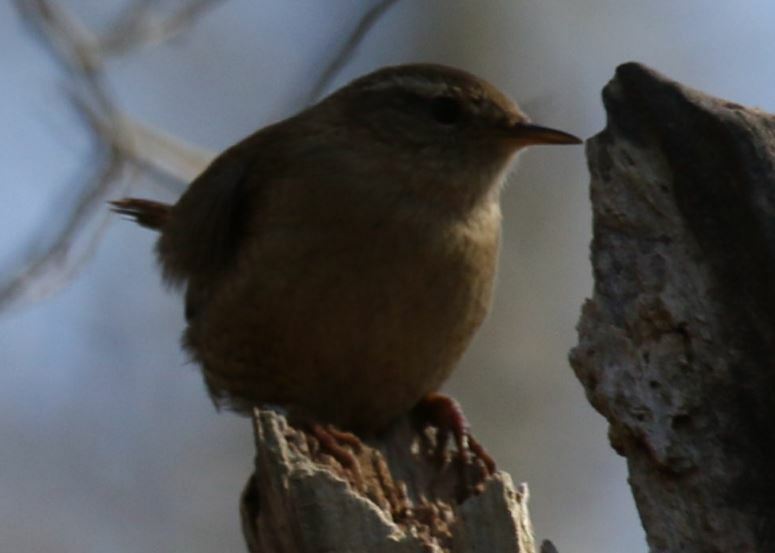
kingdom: Animalia
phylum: Chordata
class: Aves
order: Passeriformes
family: Troglodytidae
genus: Troglodytes
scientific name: Troglodytes troglodytes
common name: Eurasian wren
